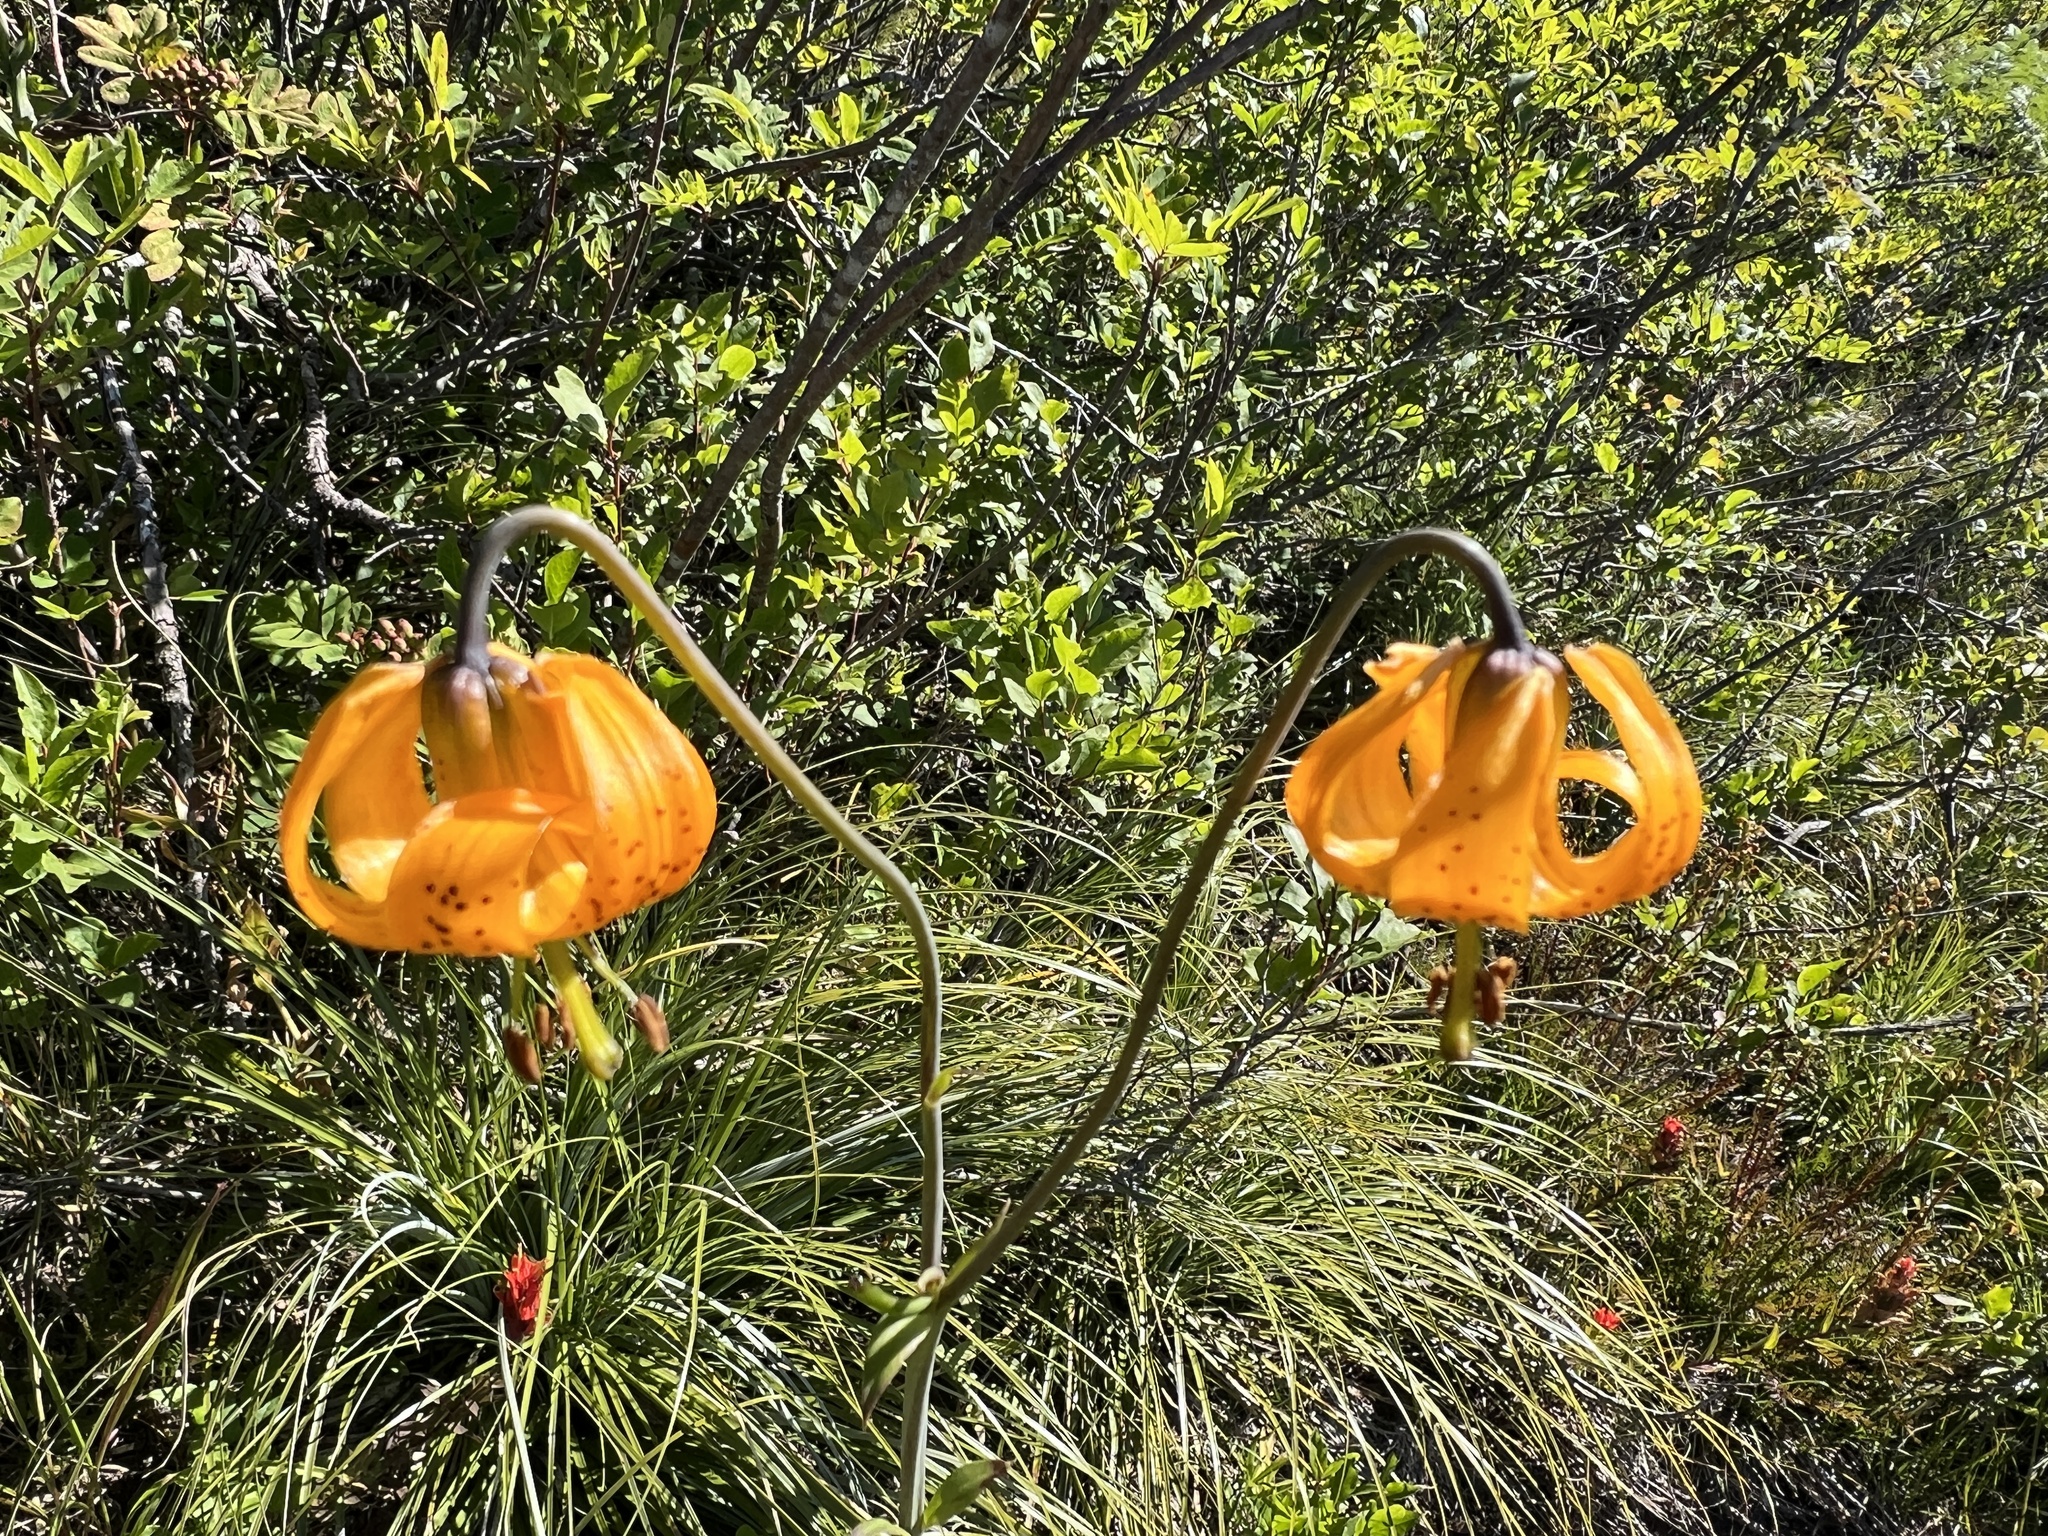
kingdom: Plantae
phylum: Tracheophyta
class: Liliopsida
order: Liliales
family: Liliaceae
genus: Lilium
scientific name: Lilium columbianum
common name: Columbia lily
